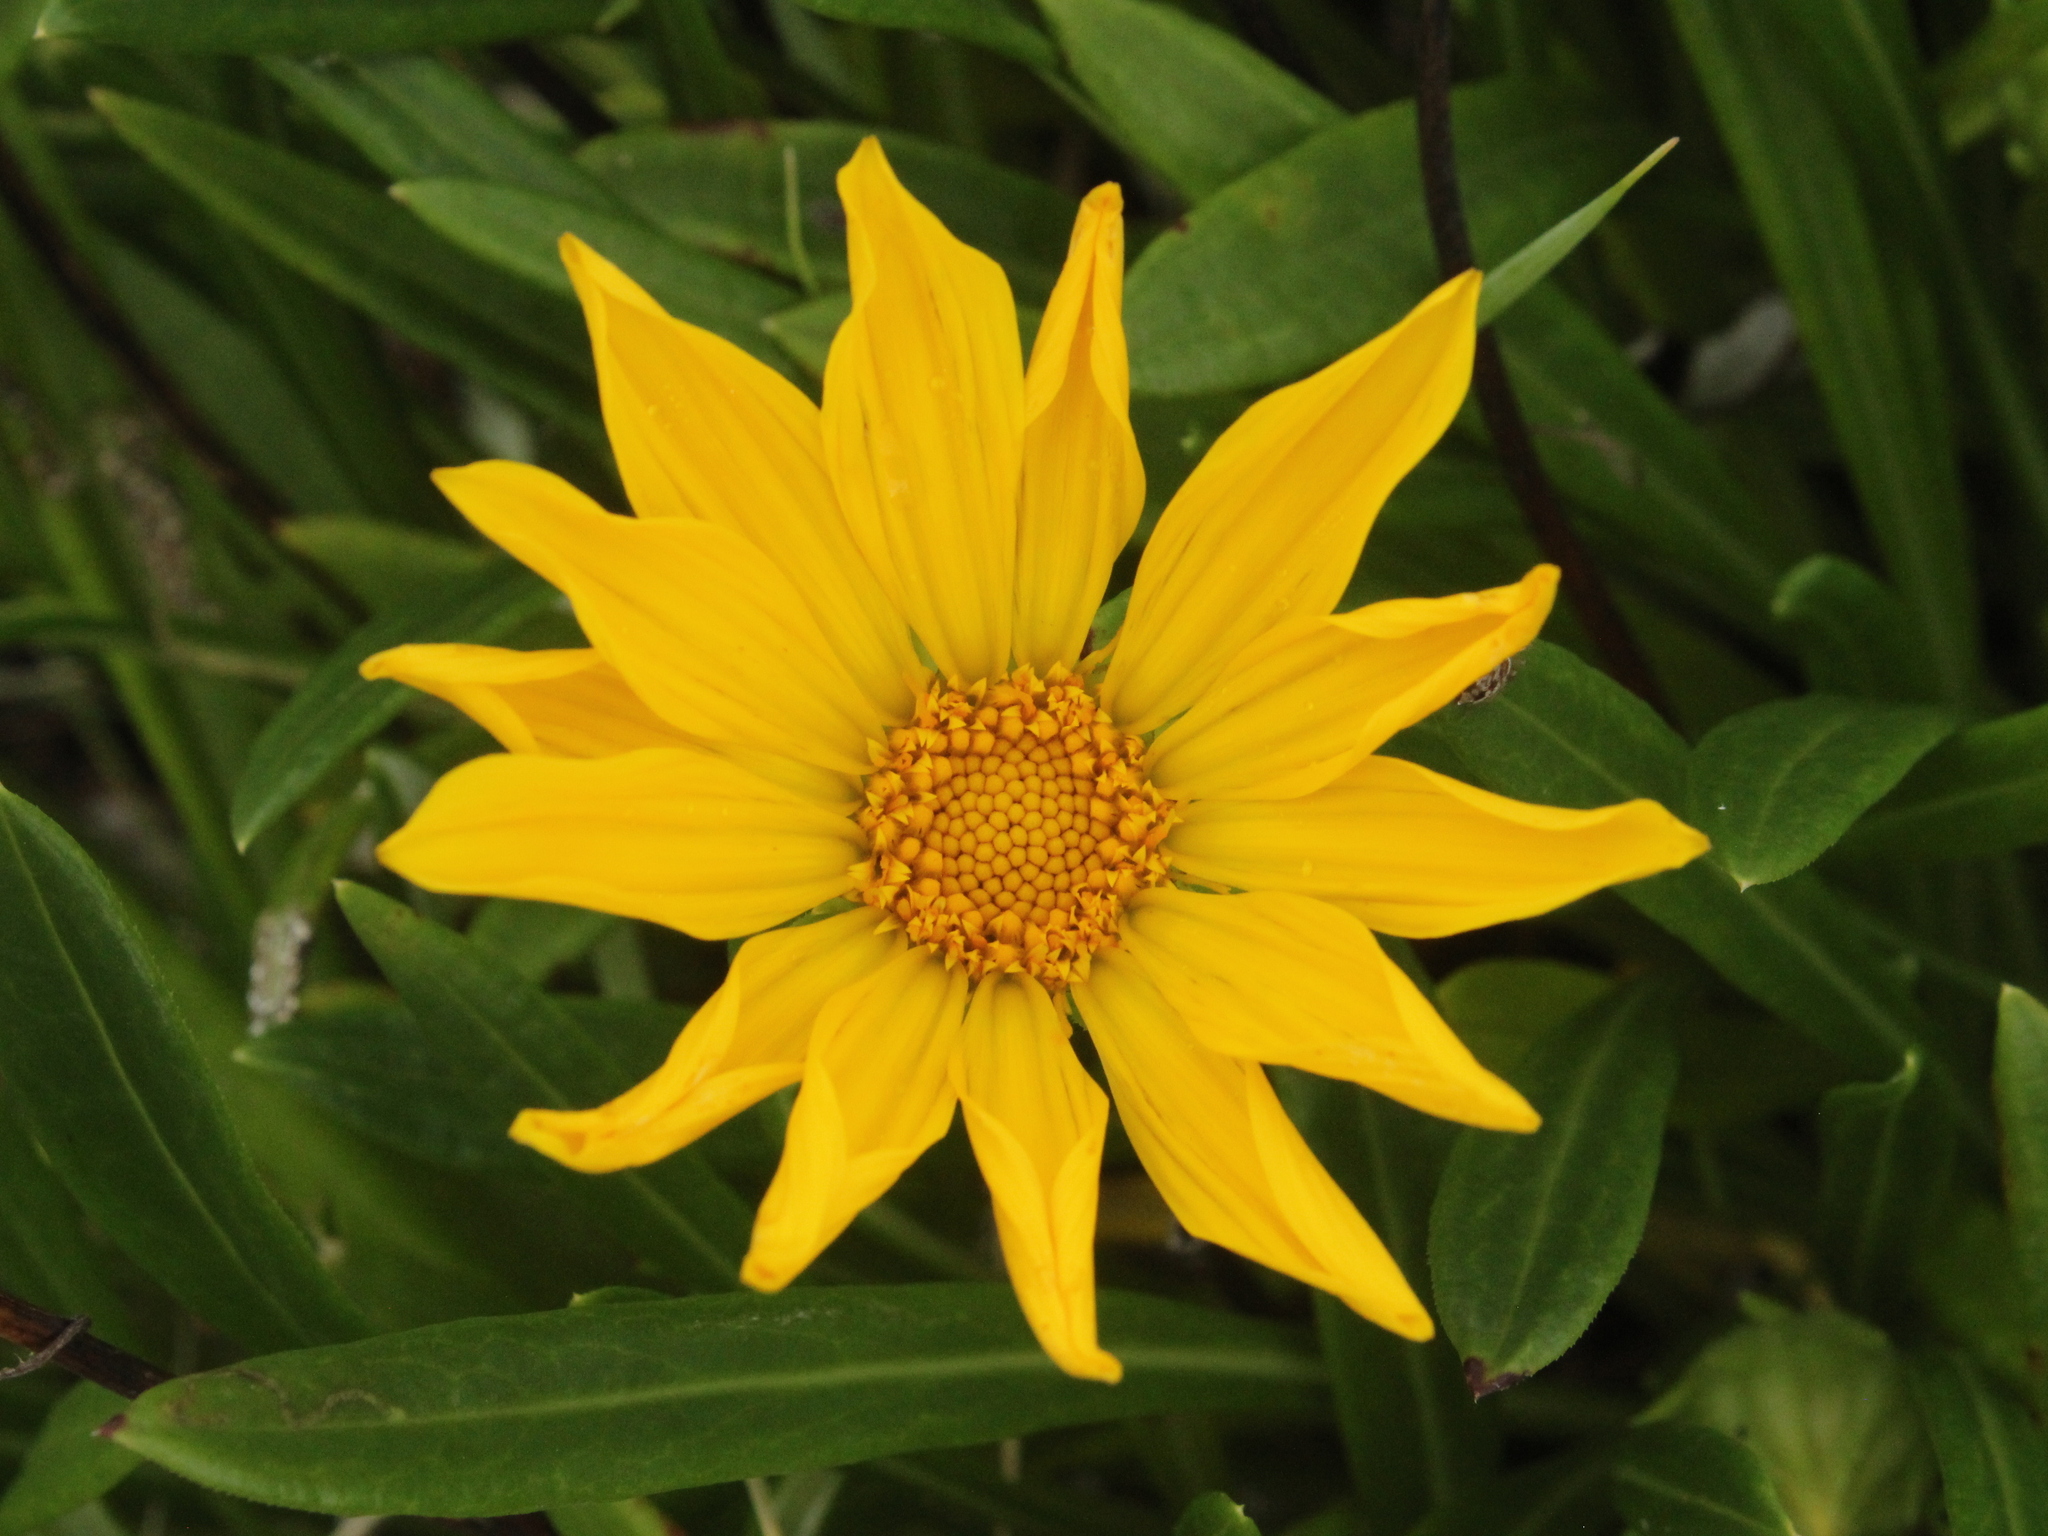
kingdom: Plantae
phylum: Tracheophyta
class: Magnoliopsida
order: Asterales
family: Asteraceae
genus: Gazania
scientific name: Gazania splendens
